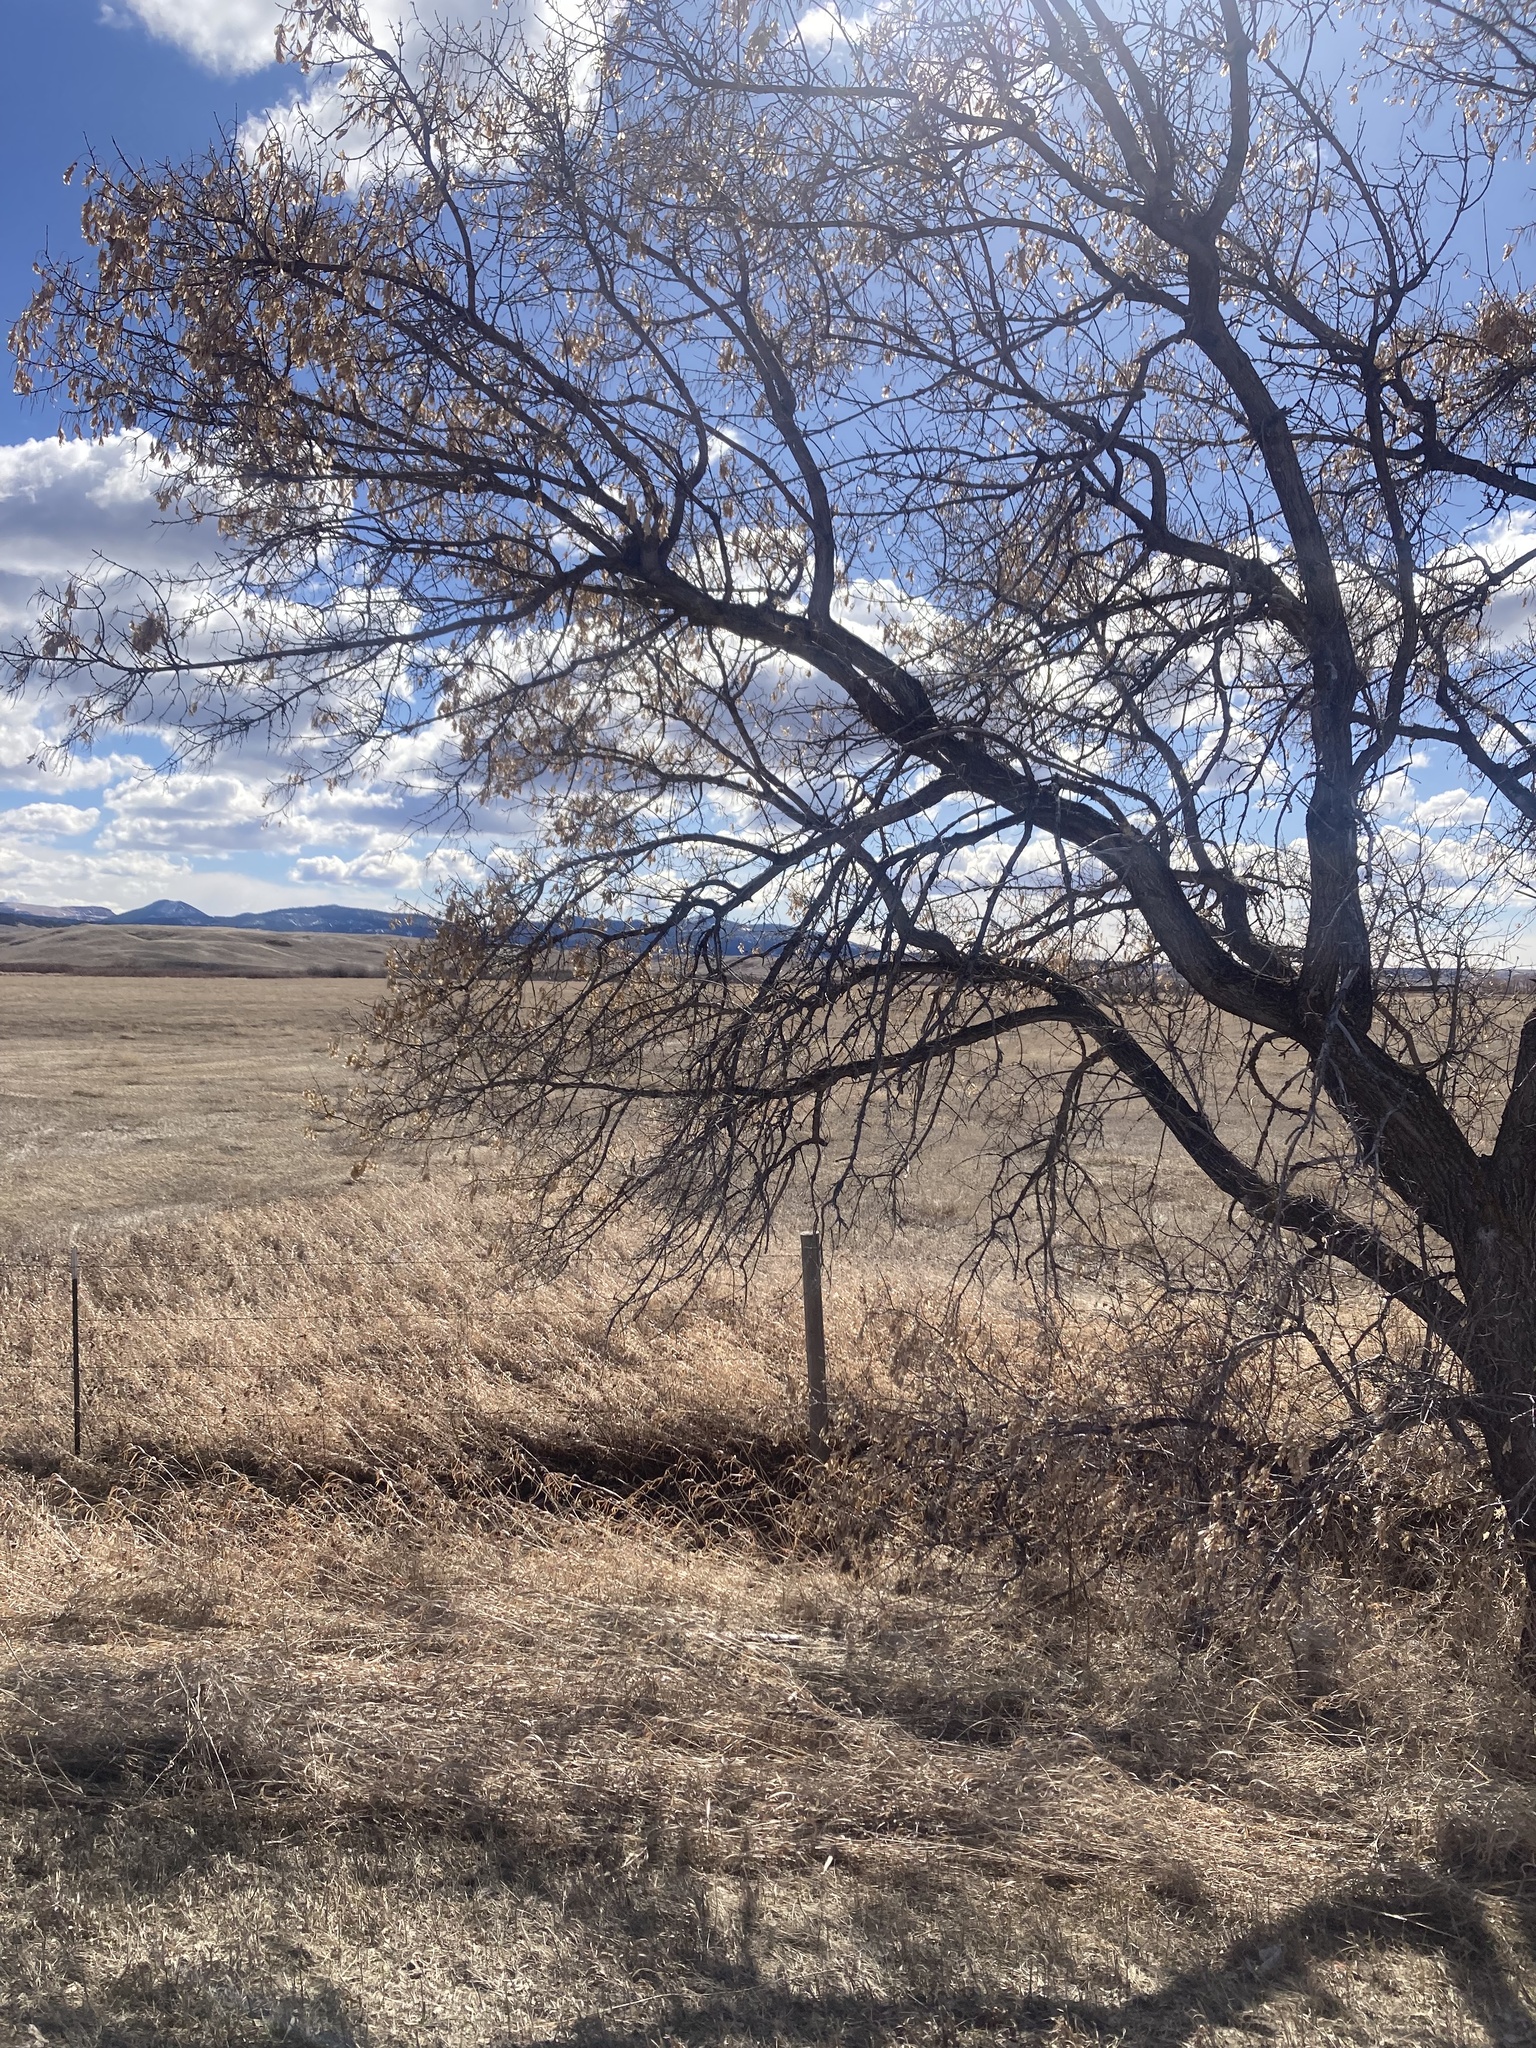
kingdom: Plantae
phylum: Tracheophyta
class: Magnoliopsida
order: Sapindales
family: Sapindaceae
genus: Acer
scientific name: Acer negundo
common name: Ashleaf maple
